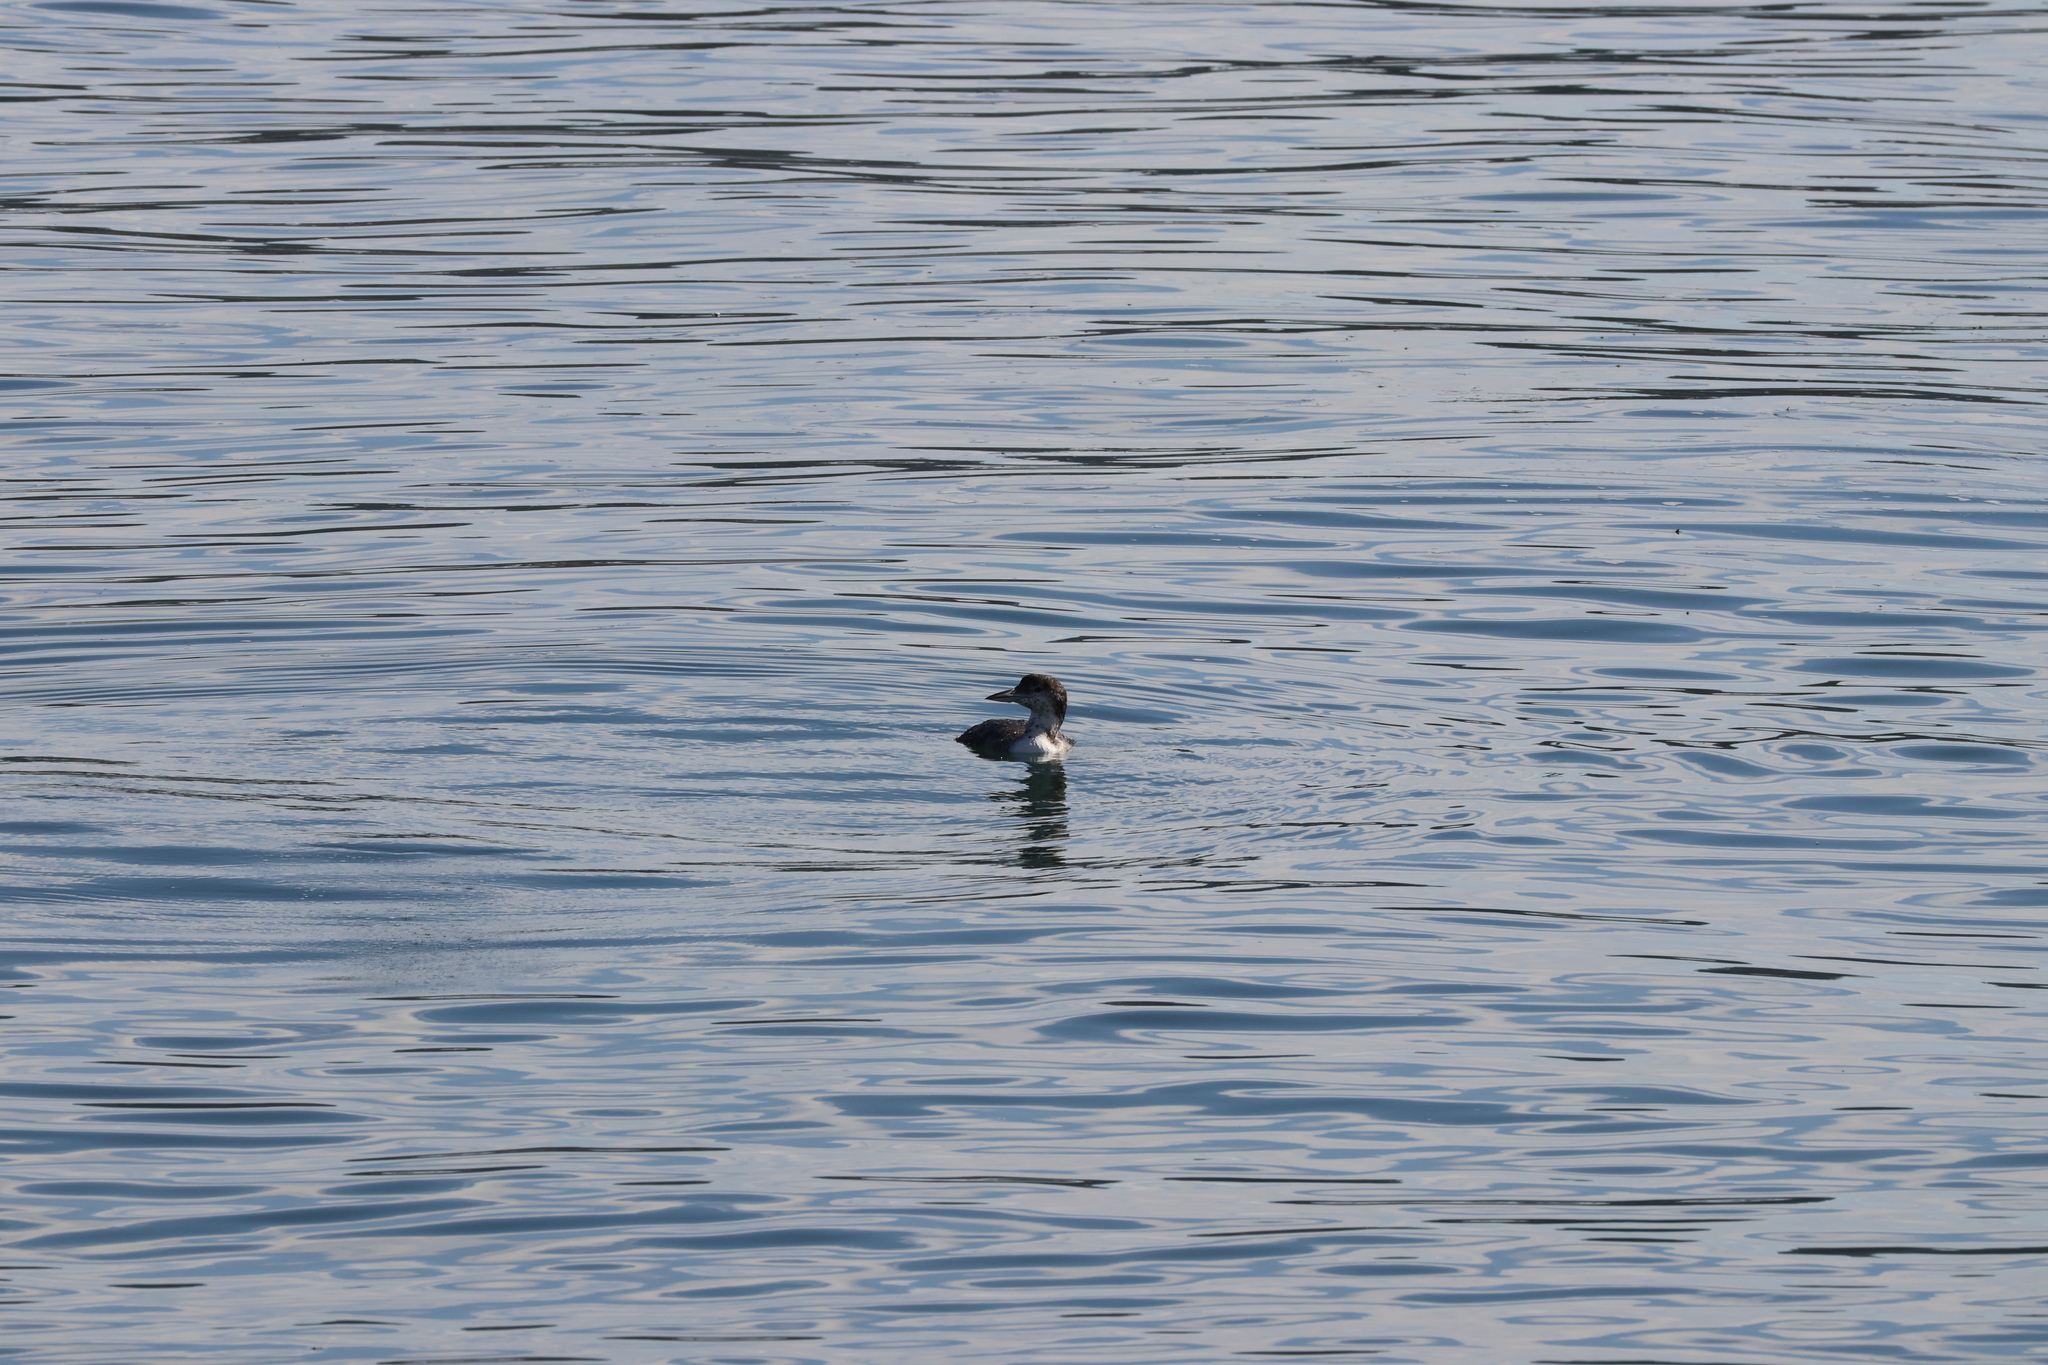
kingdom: Animalia
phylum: Chordata
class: Aves
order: Gaviiformes
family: Gaviidae
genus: Gavia
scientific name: Gavia immer
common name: Common loon
